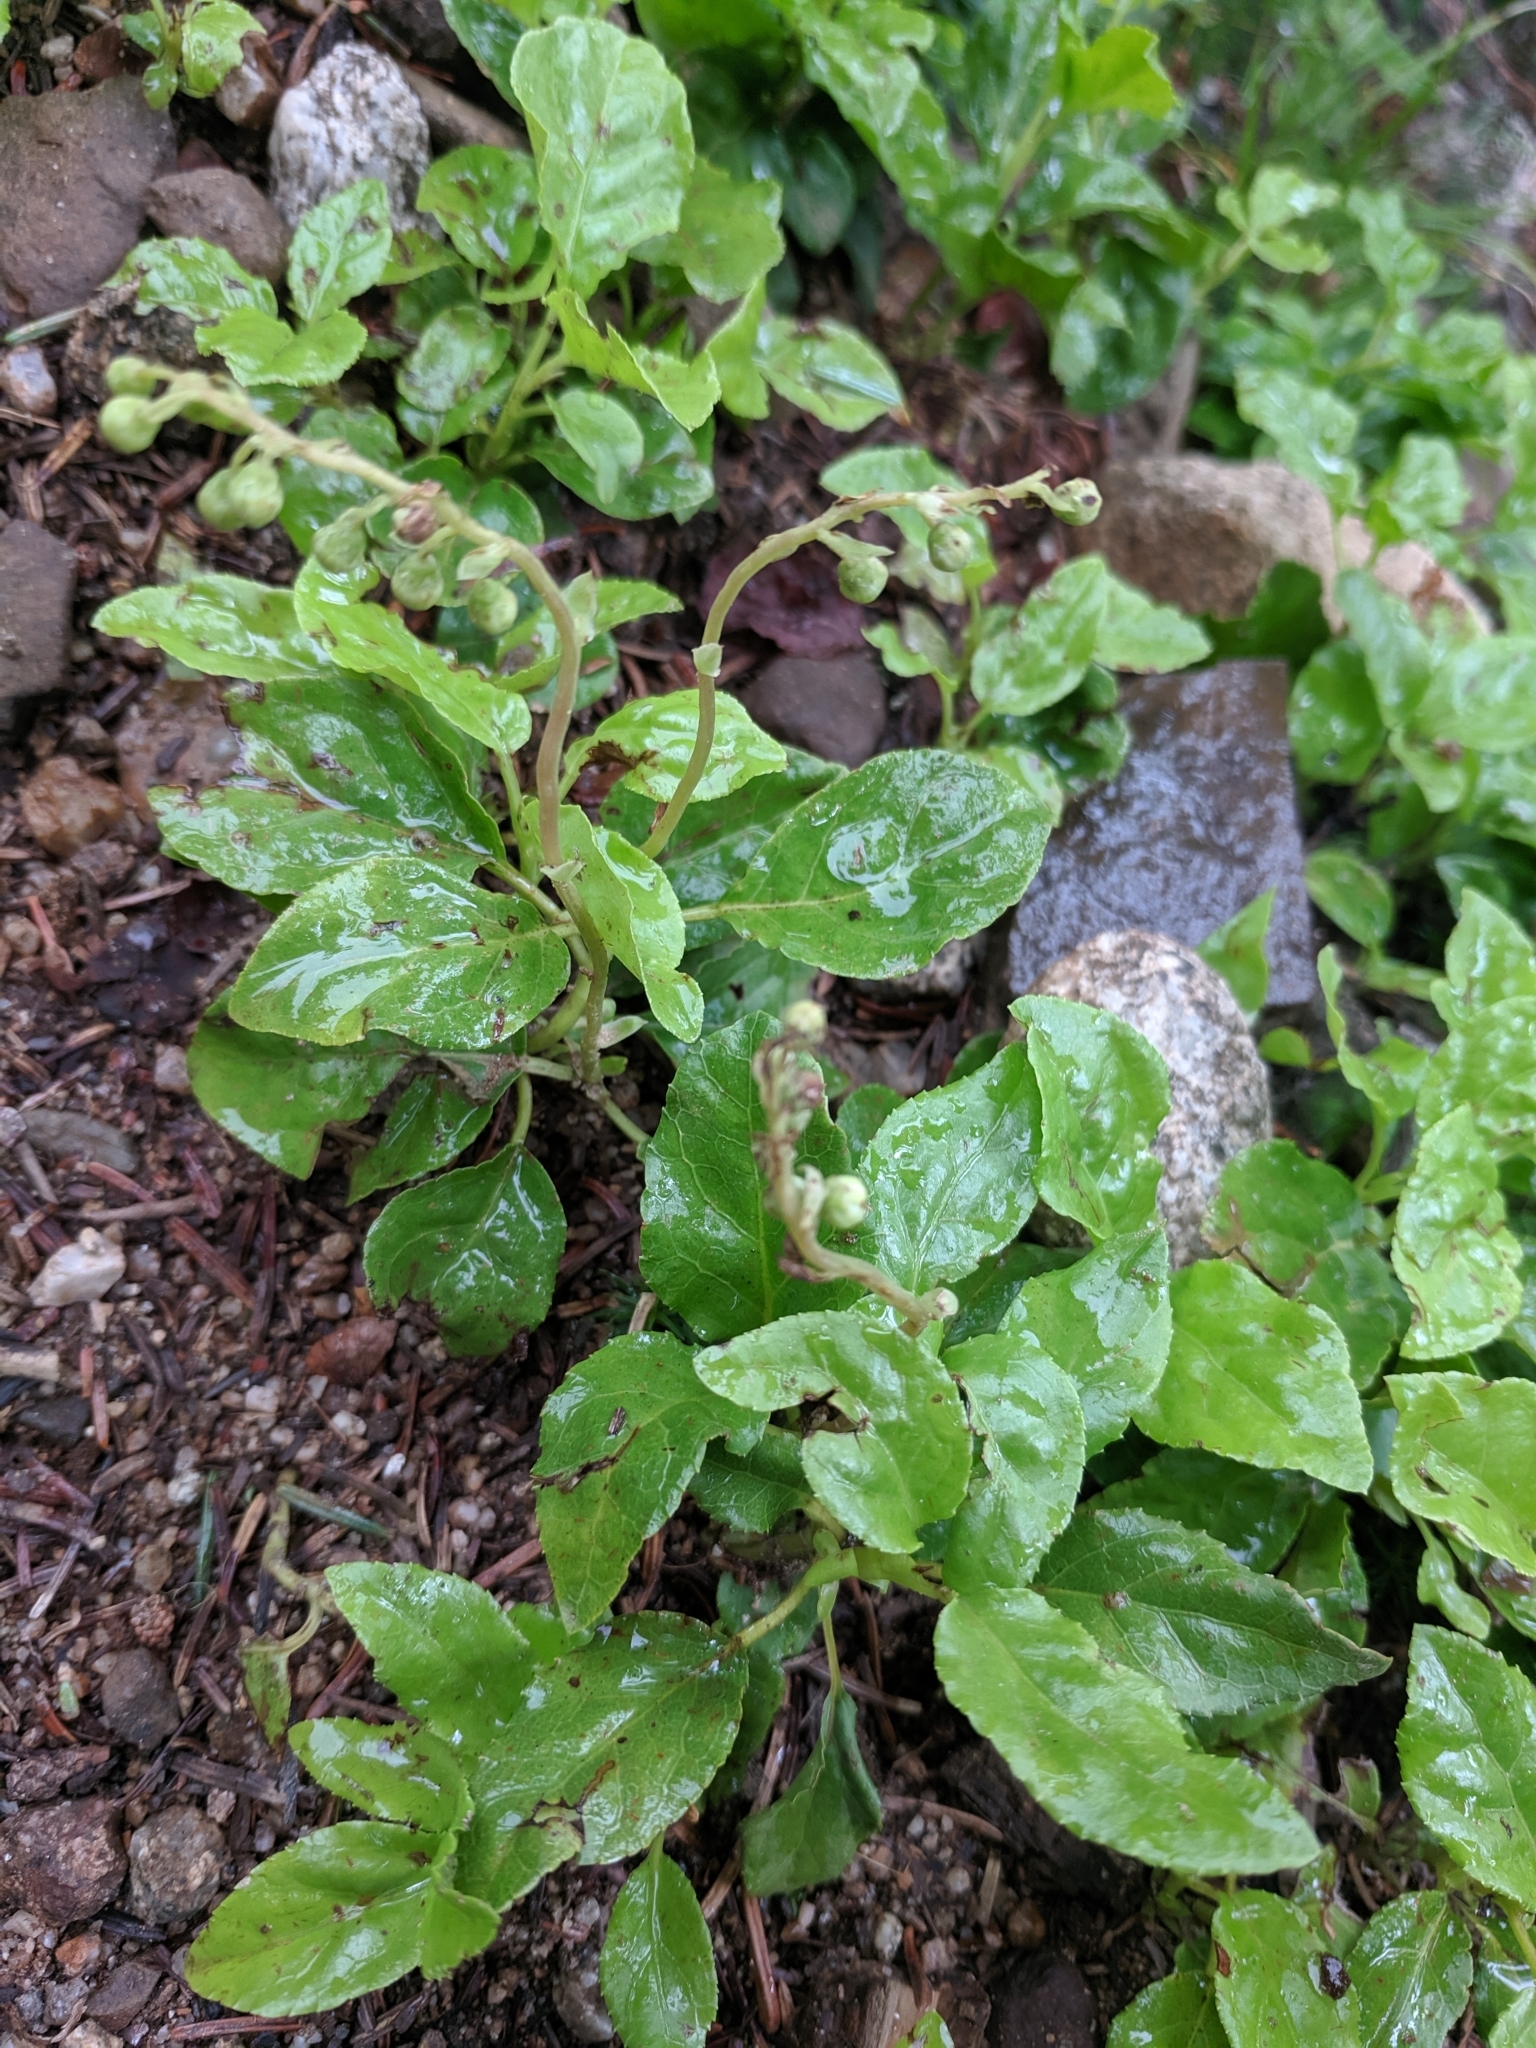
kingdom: Plantae
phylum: Tracheophyta
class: Magnoliopsida
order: Ericales
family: Ericaceae
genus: Orthilia
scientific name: Orthilia secunda
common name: One-sided orthilia
